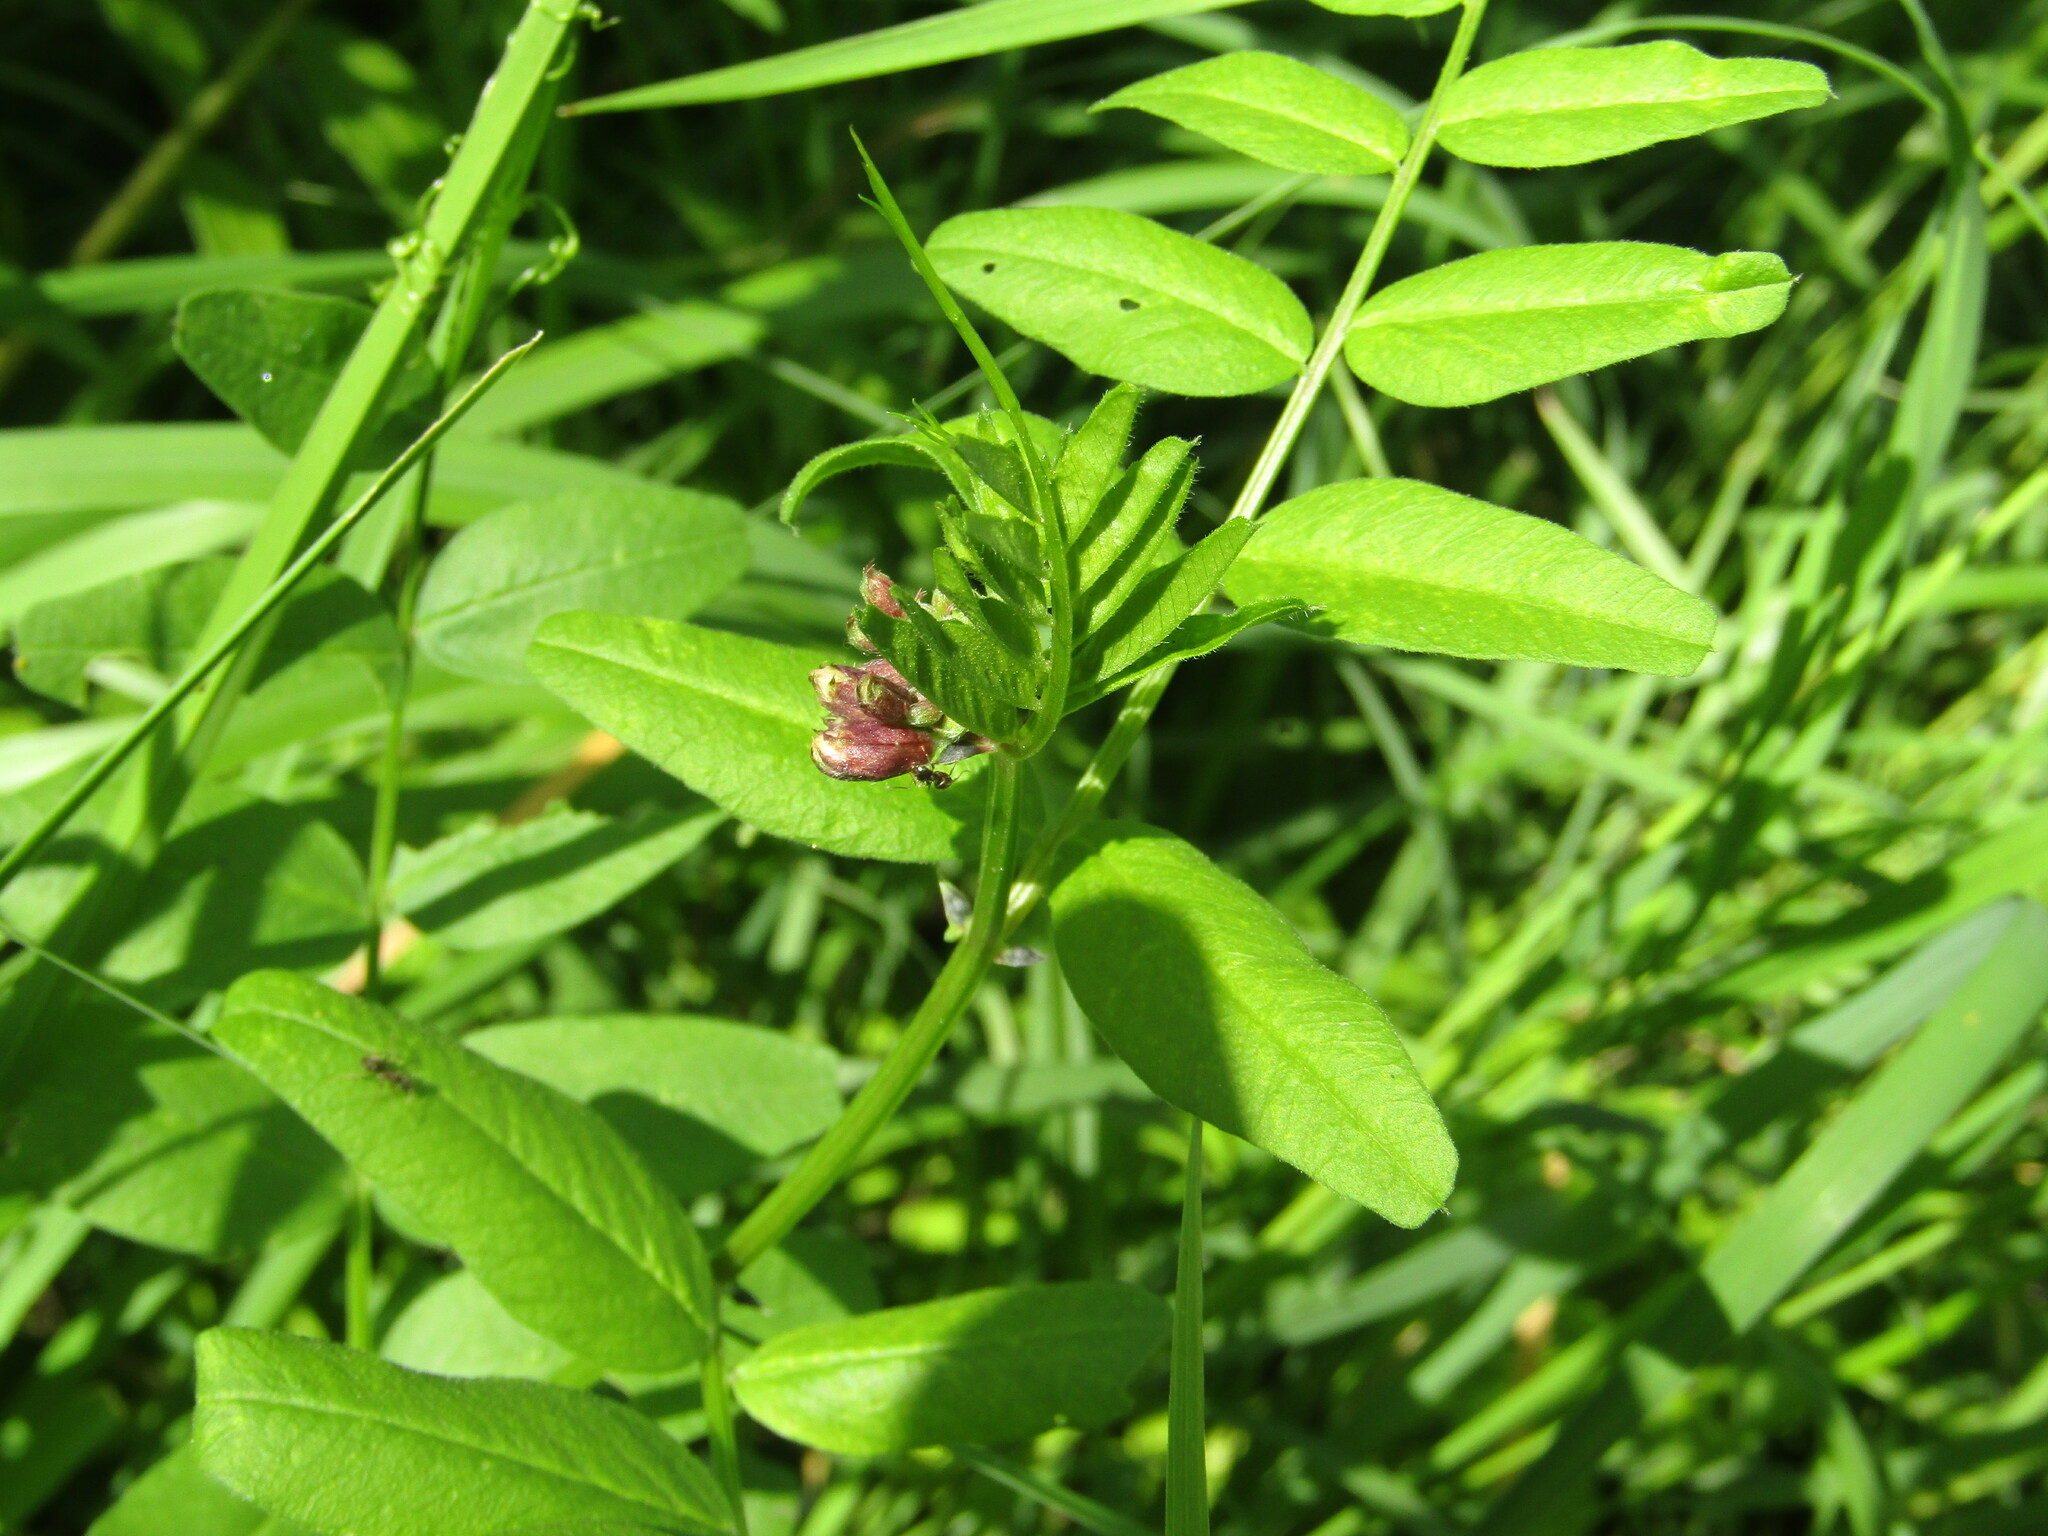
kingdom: Plantae
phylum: Tracheophyta
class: Magnoliopsida
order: Fabales
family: Fabaceae
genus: Vicia
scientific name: Vicia sepium
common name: Bush vetch
